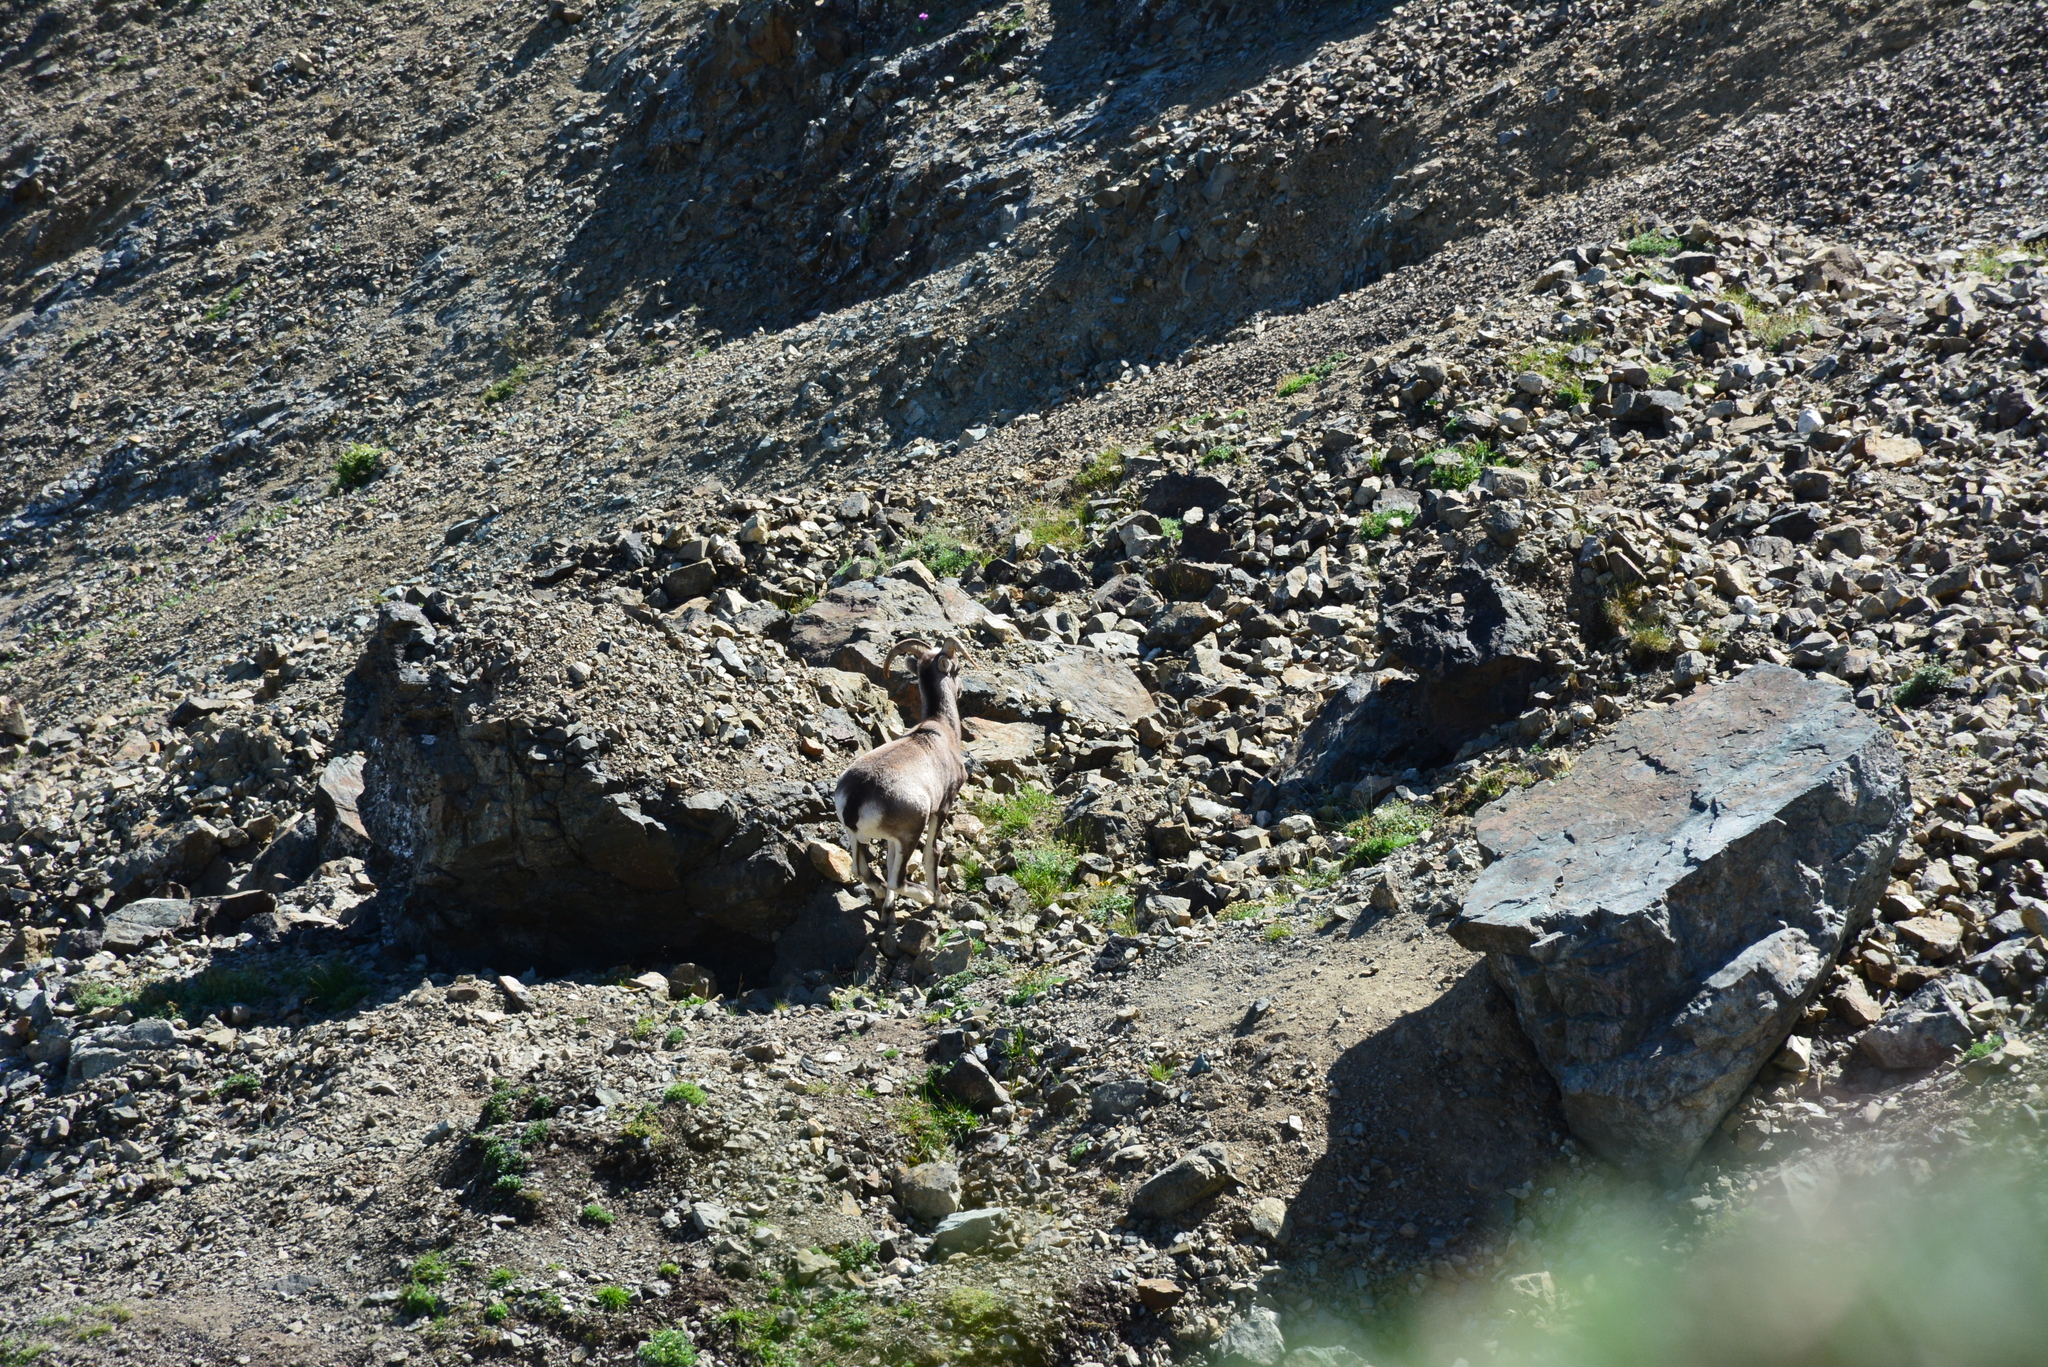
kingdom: Animalia
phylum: Chordata
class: Mammalia
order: Artiodactyla
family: Bovidae
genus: Ovis
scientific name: Ovis nivicola
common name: Snow sheep
